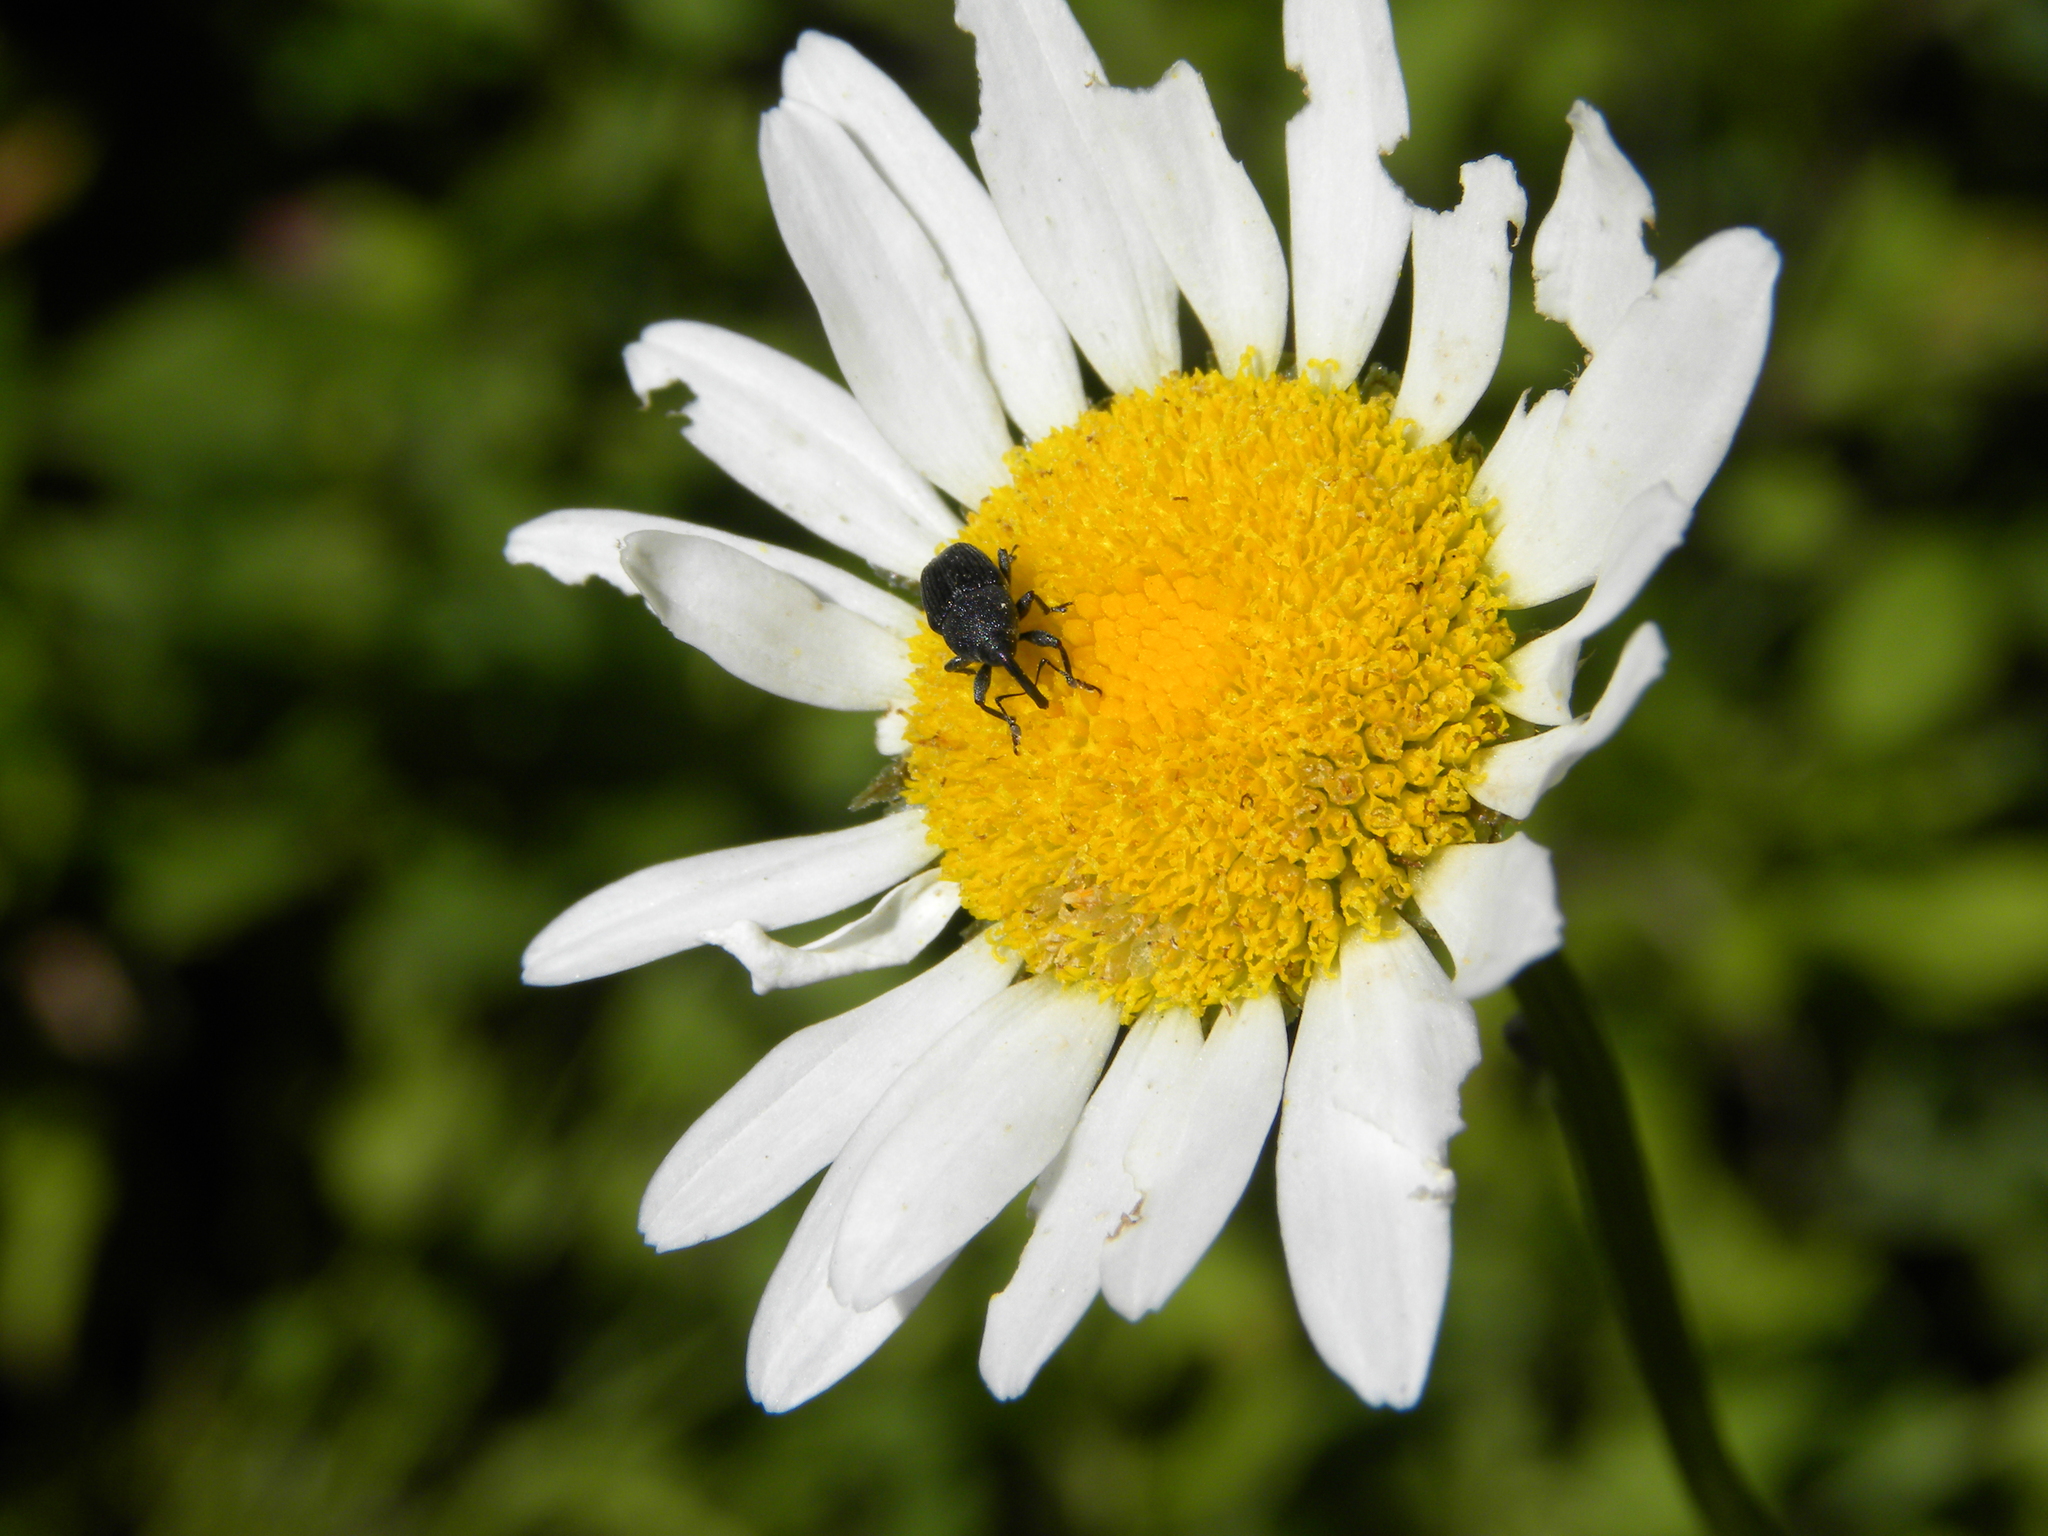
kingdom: Animalia
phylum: Arthropoda
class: Insecta
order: Coleoptera
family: Curculionidae
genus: Odontocorynus
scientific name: Odontocorynus salebrosus
